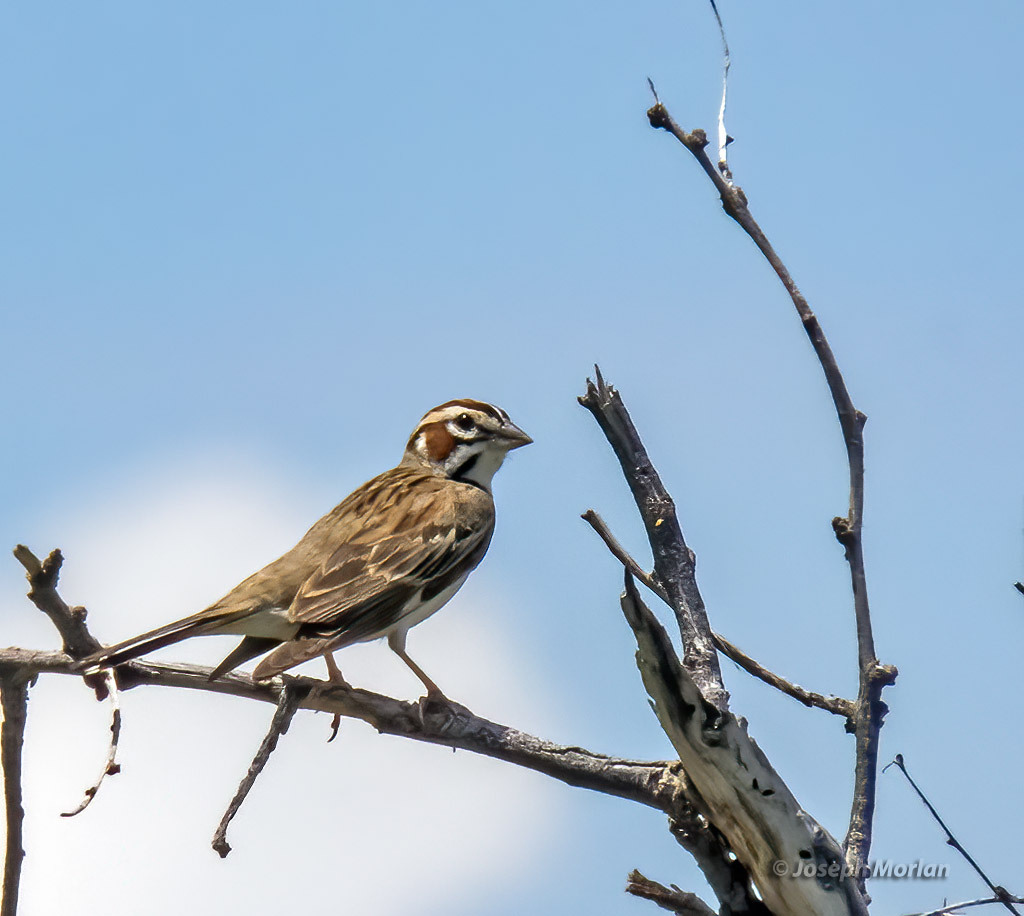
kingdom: Animalia
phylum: Chordata
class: Aves
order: Passeriformes
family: Passerellidae
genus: Chondestes
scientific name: Chondestes grammacus
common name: Lark sparrow
